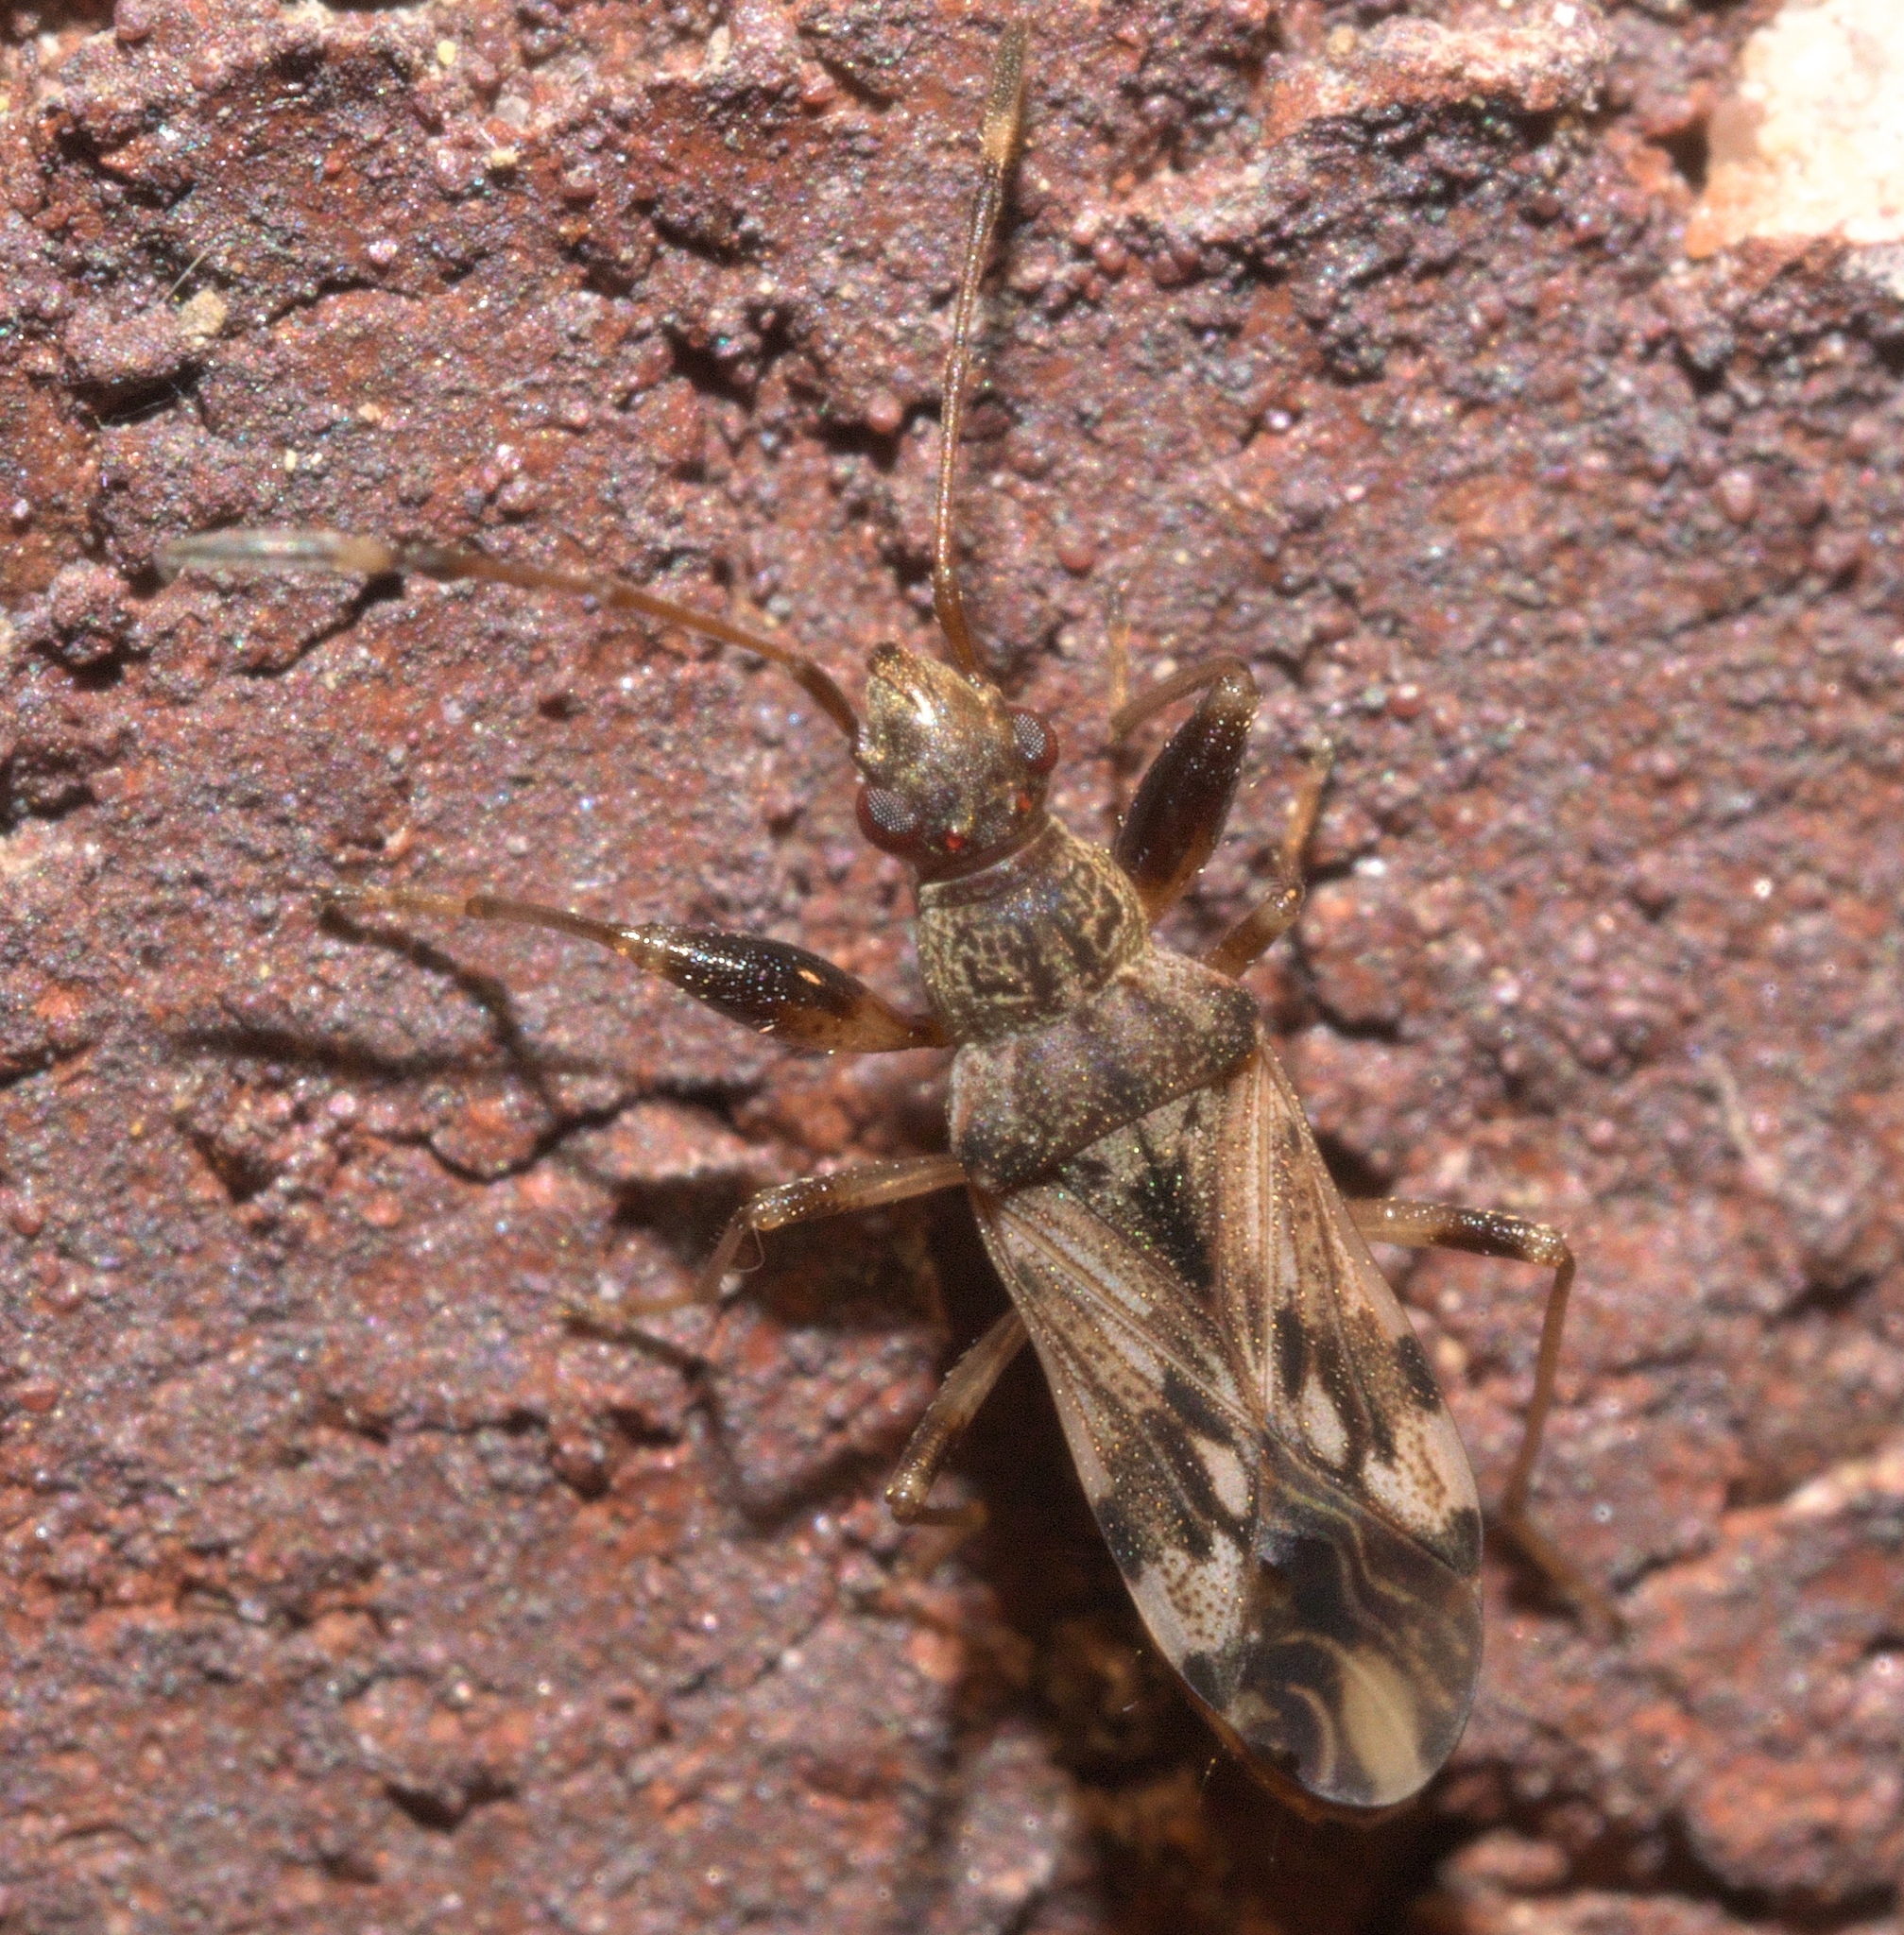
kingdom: Animalia
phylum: Arthropoda
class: Insecta
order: Hemiptera
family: Rhyparochromidae
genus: Neopamera
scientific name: Neopamera albocincta
